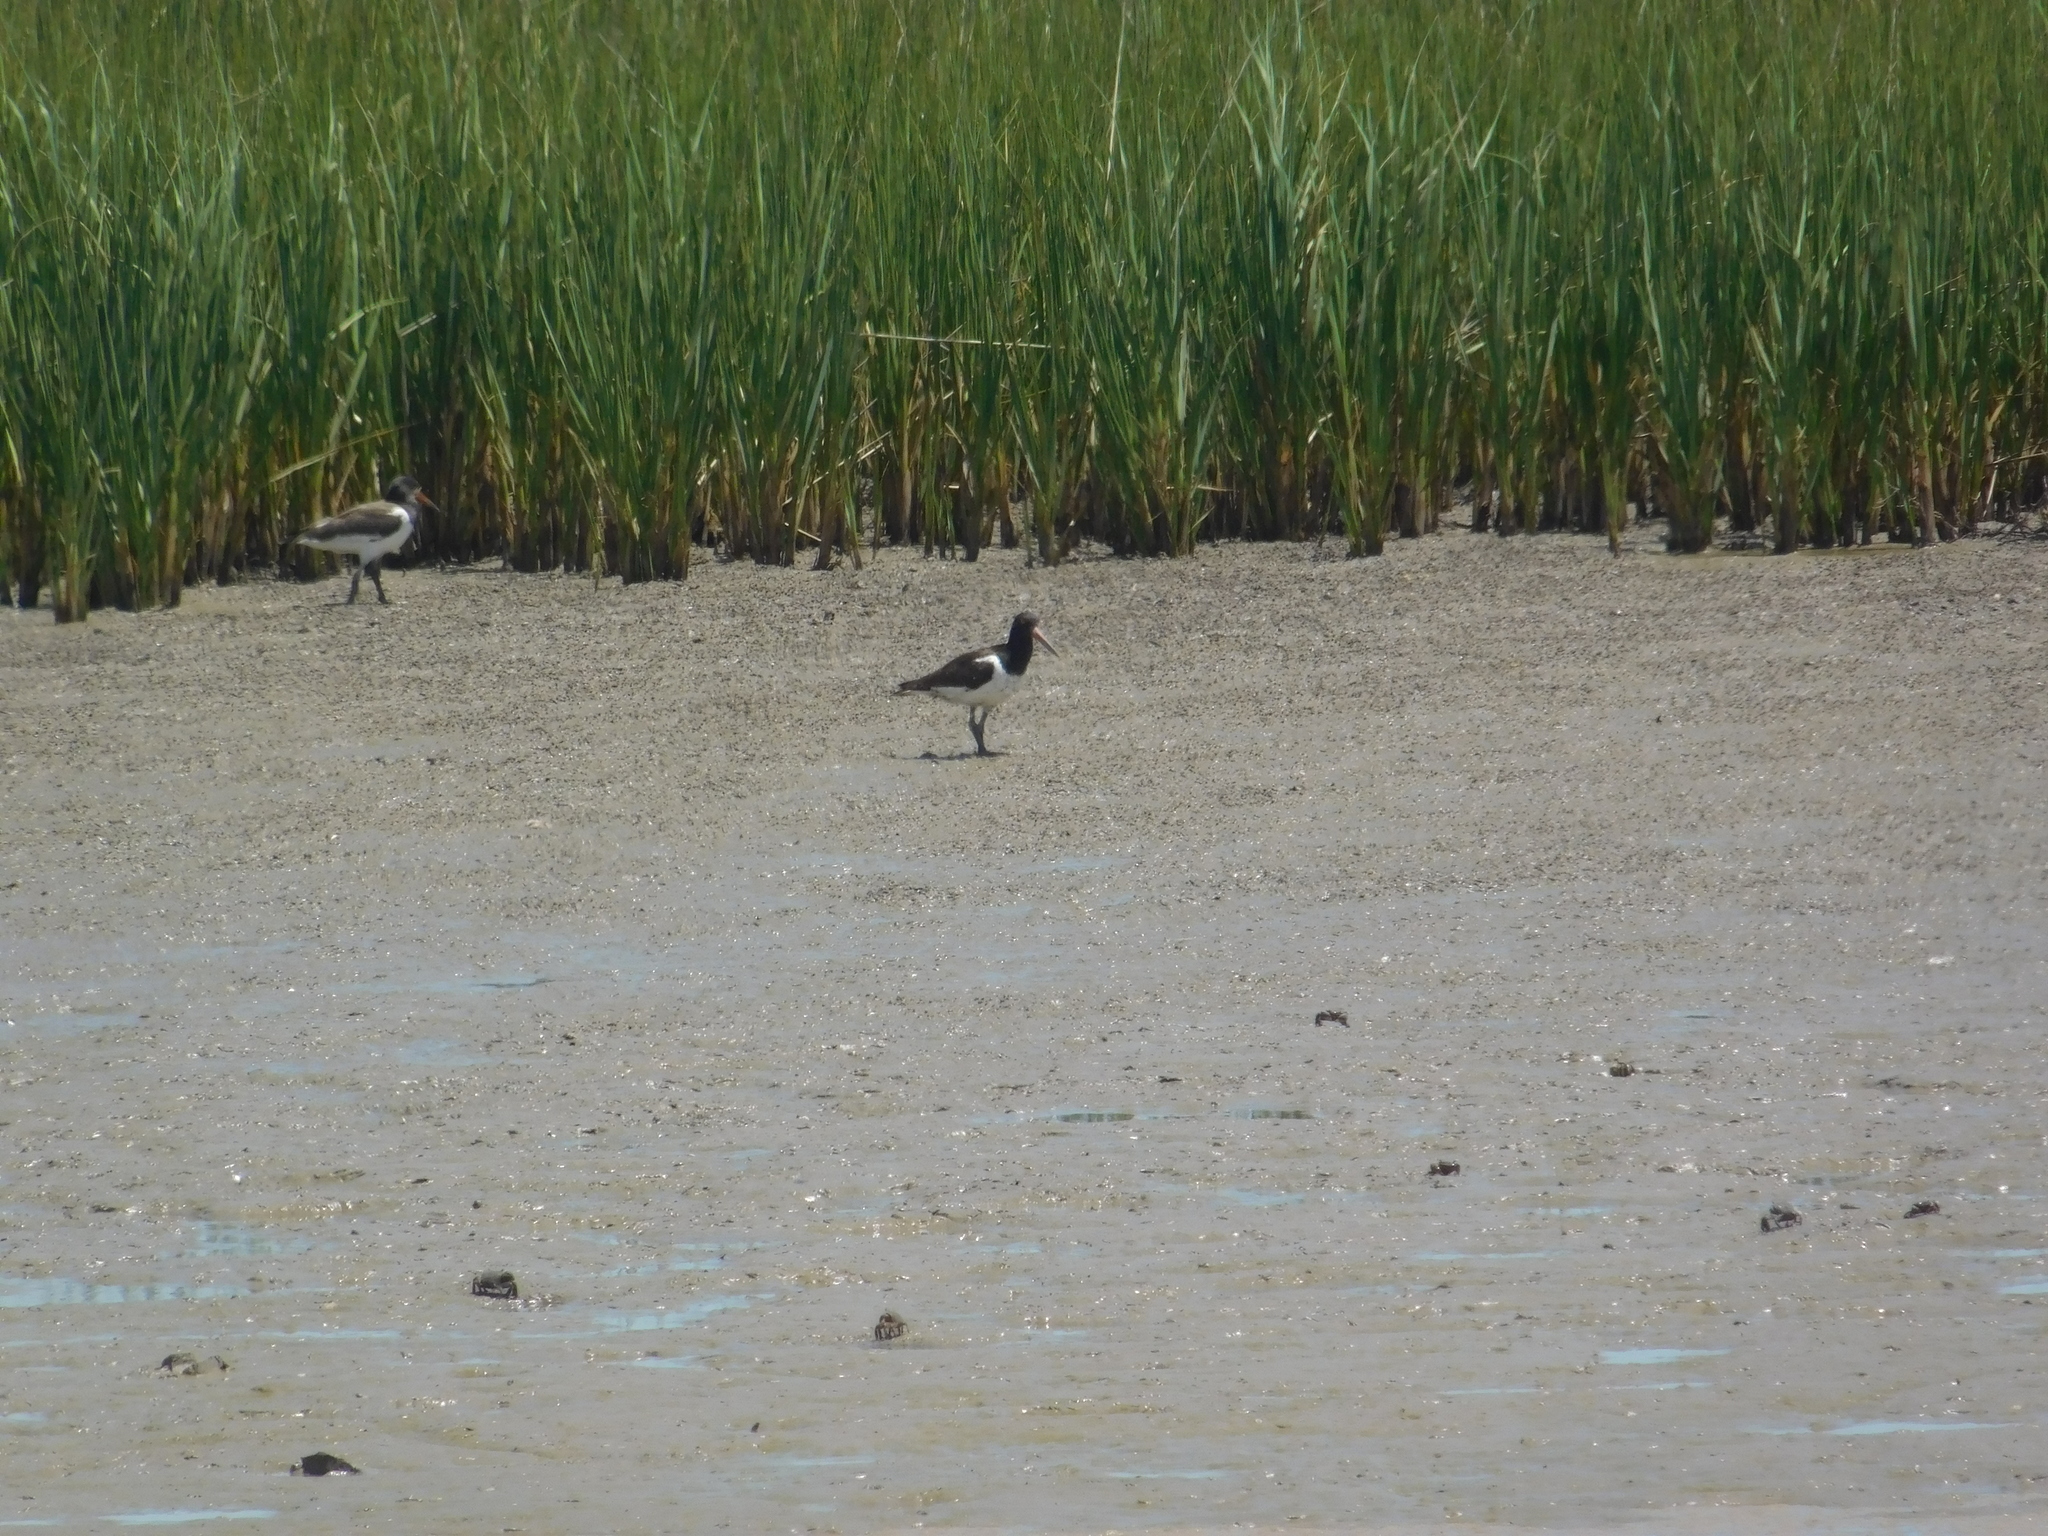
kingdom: Animalia
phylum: Chordata
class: Aves
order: Charadriiformes
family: Haematopodidae
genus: Haematopus
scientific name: Haematopus palliatus
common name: American oystercatcher
